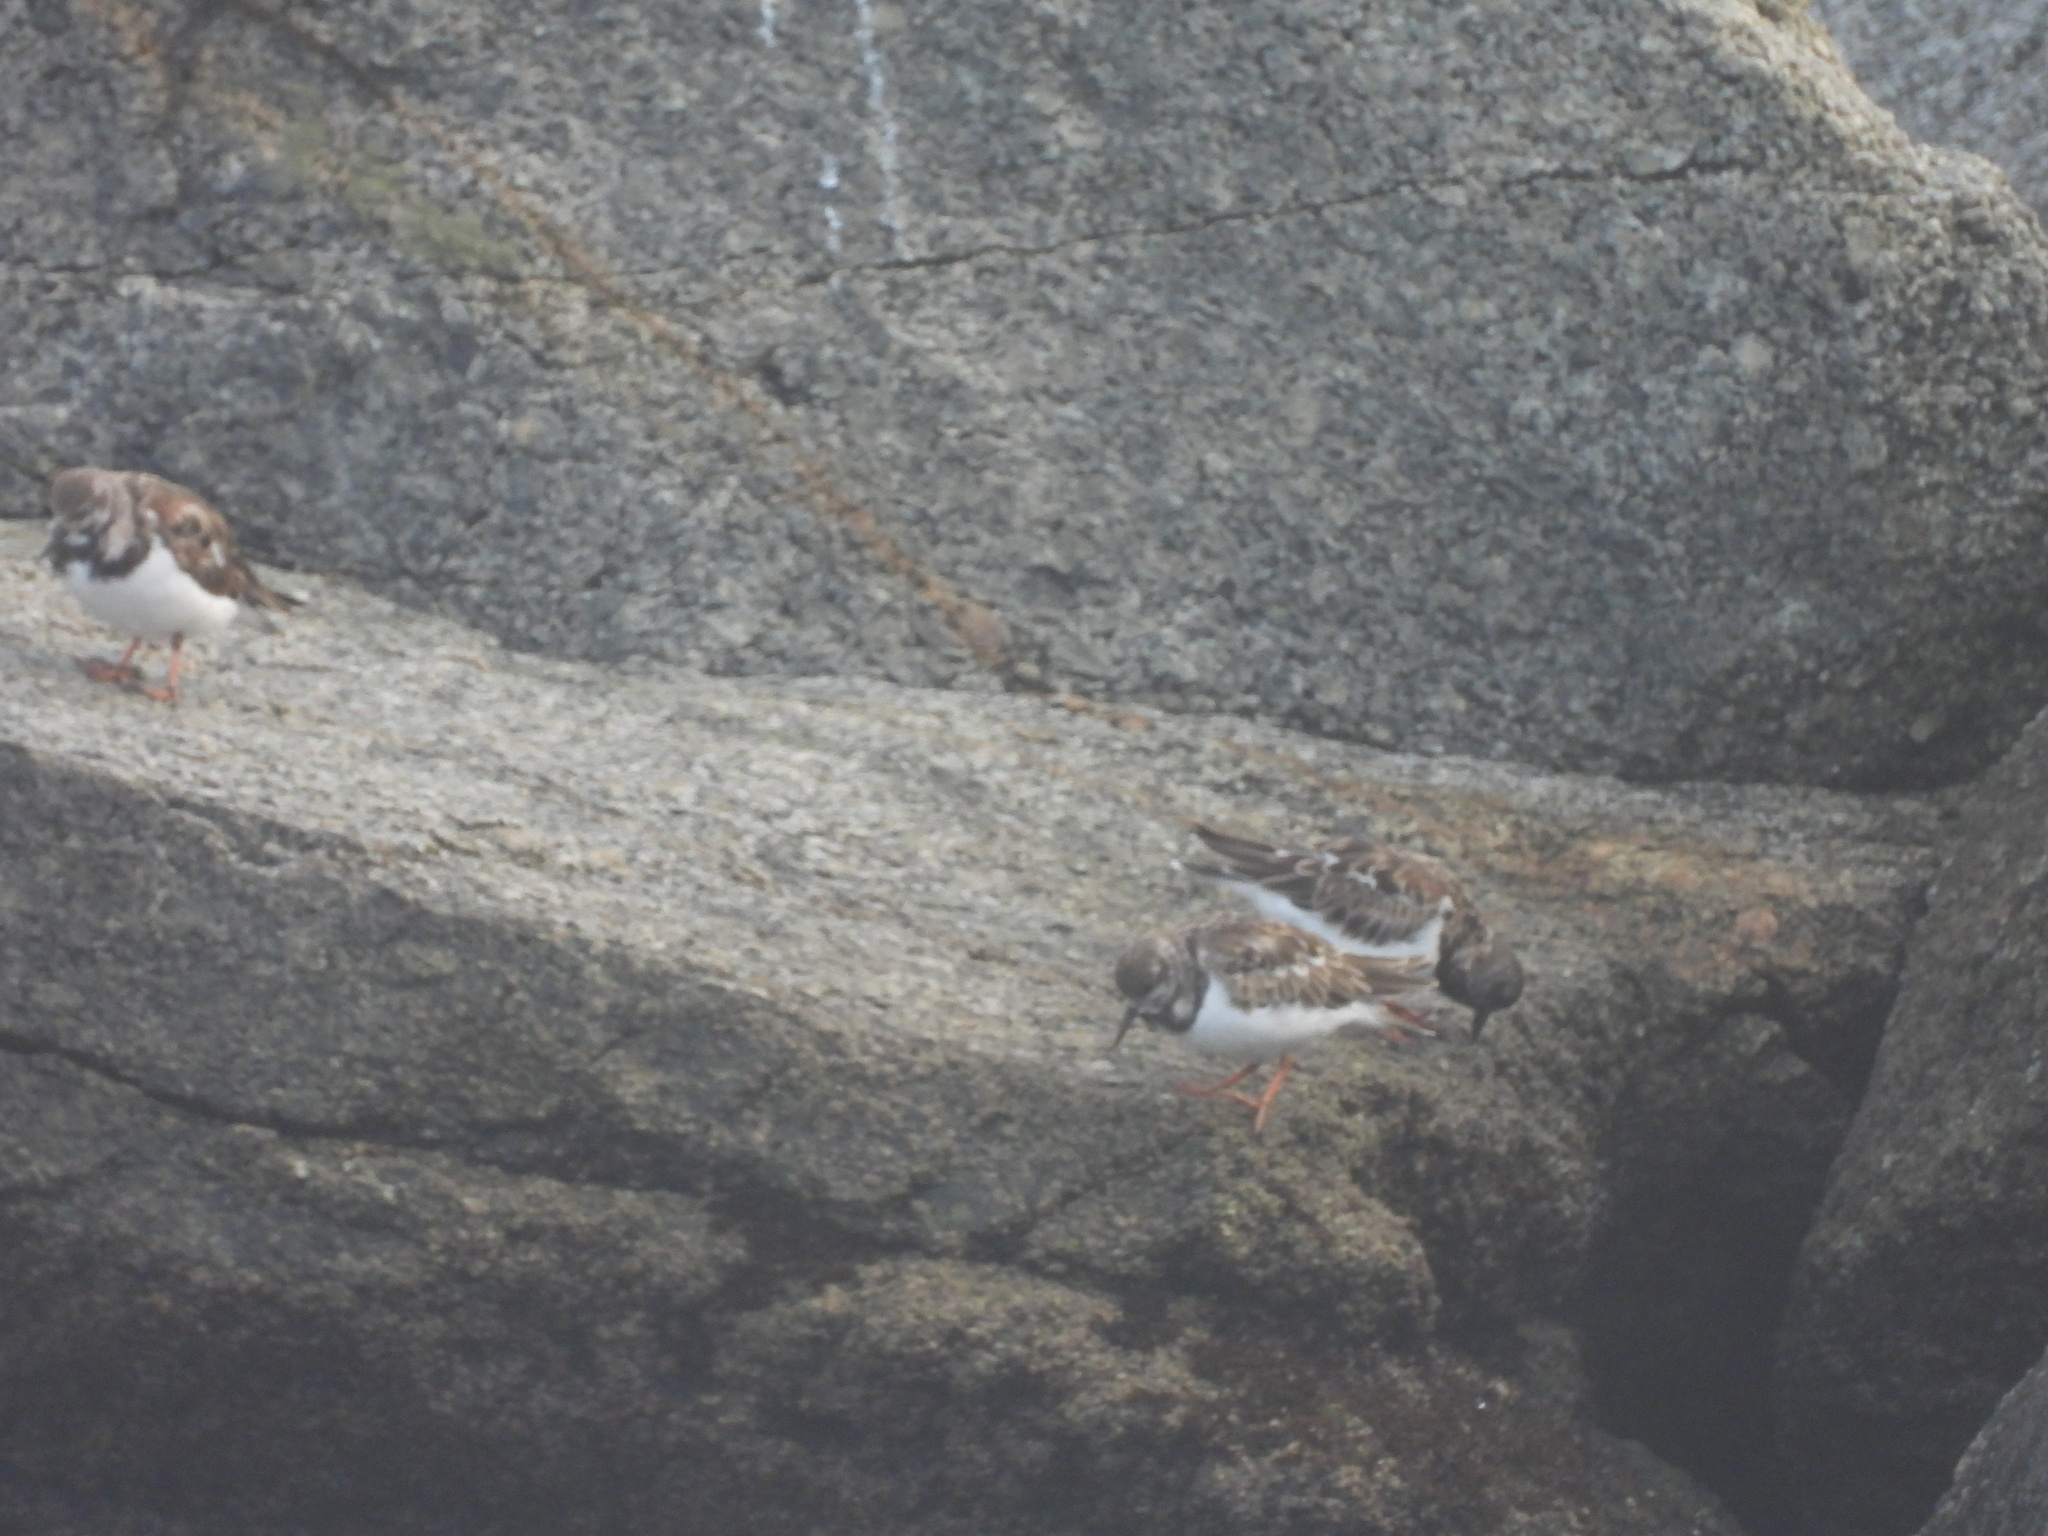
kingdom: Animalia
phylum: Chordata
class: Aves
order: Charadriiformes
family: Scolopacidae
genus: Arenaria
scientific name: Arenaria interpres
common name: Ruddy turnstone
